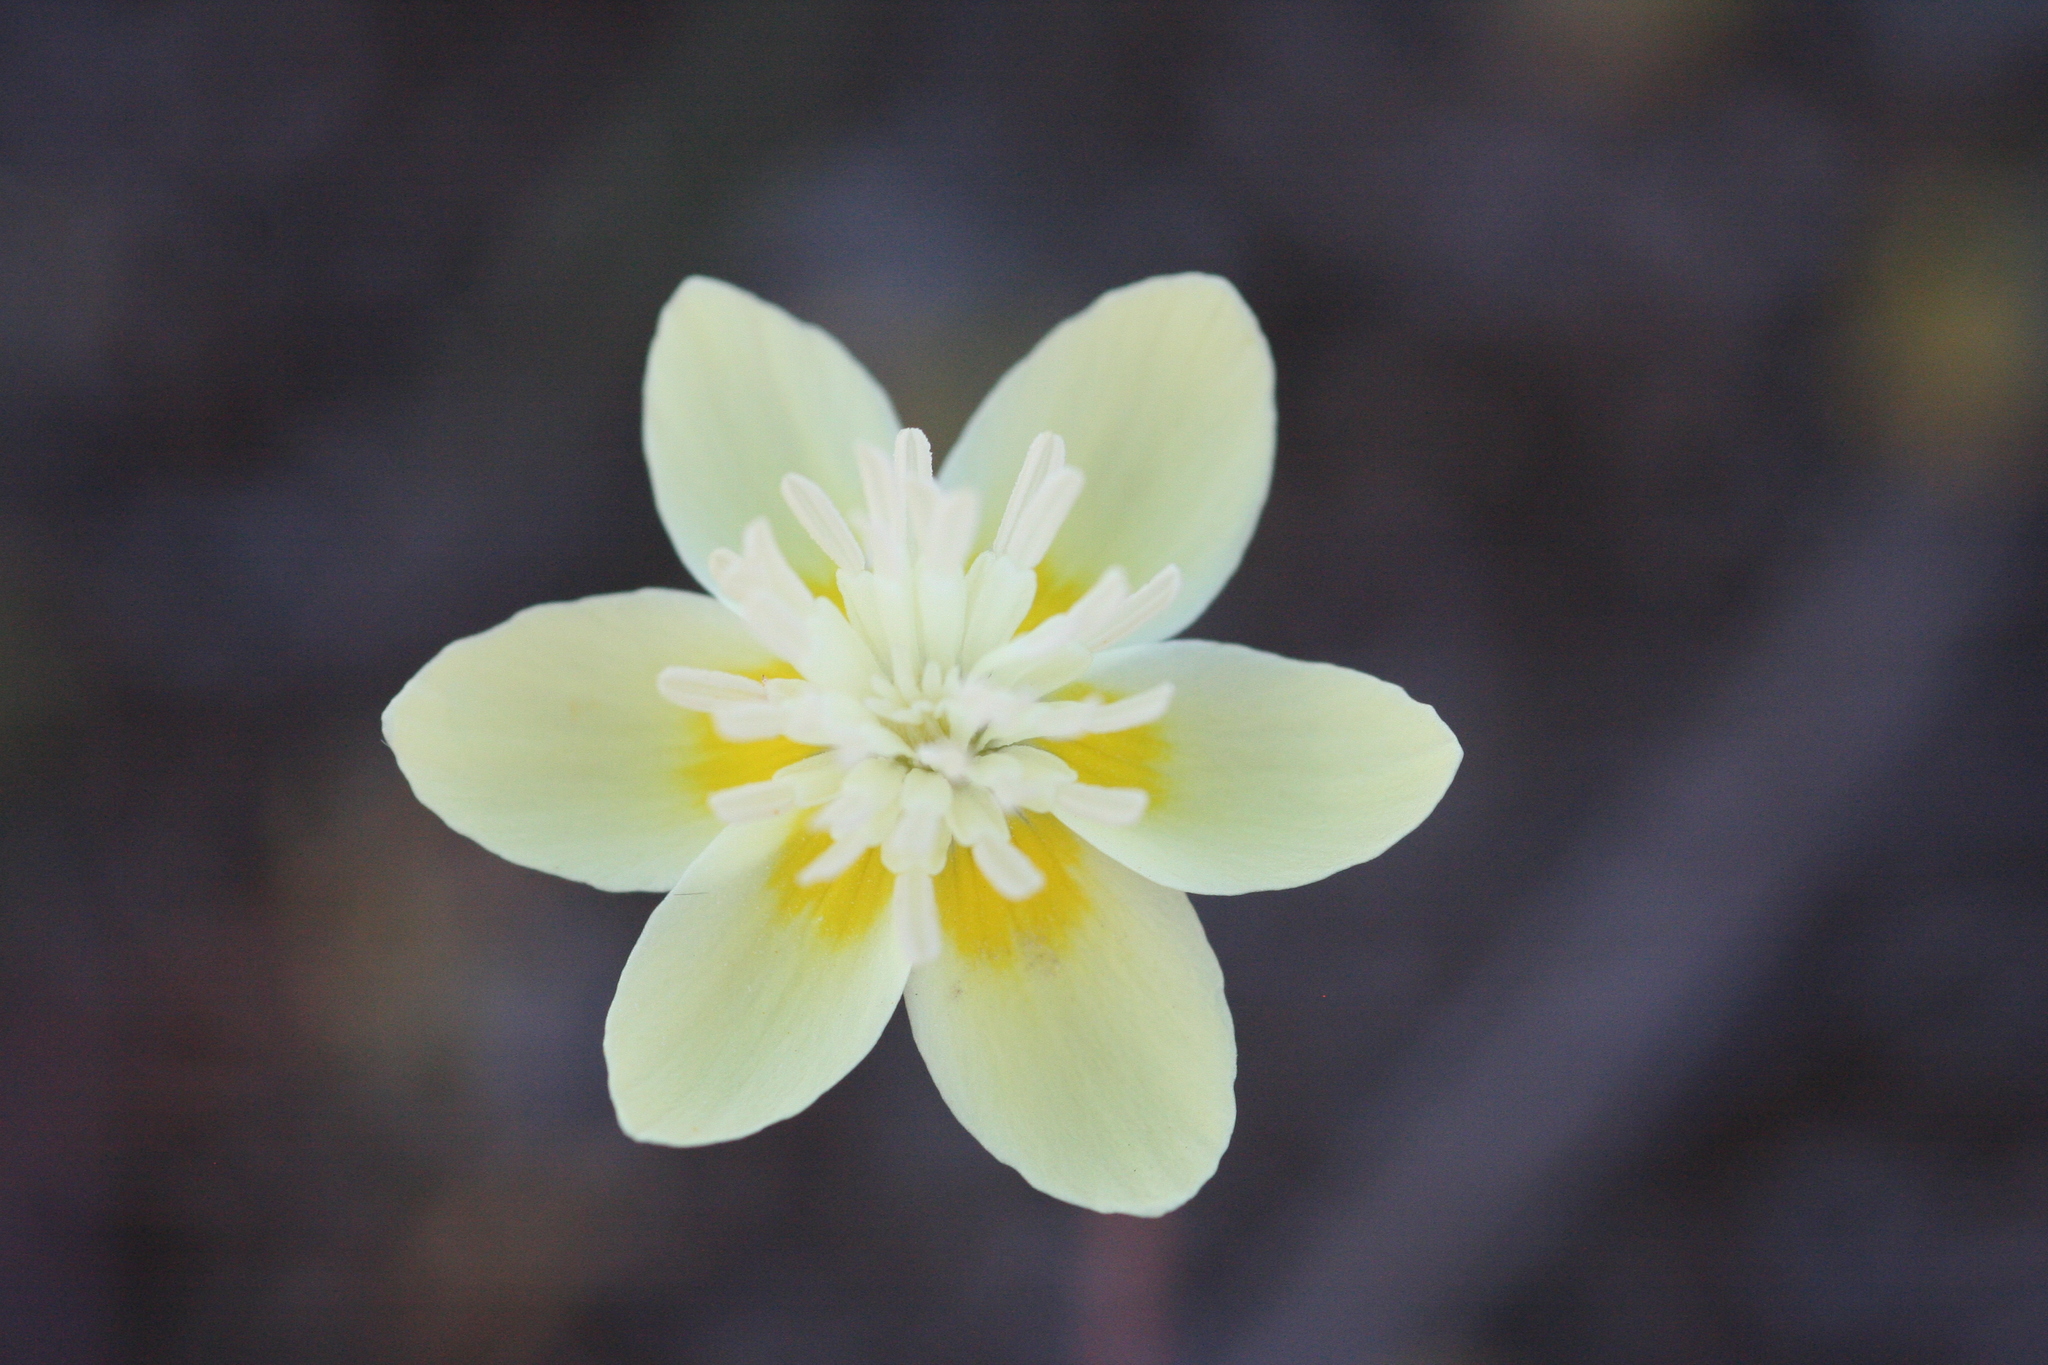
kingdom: Plantae
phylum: Tracheophyta
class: Magnoliopsida
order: Ranunculales
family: Papaveraceae
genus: Platystemon
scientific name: Platystemon californicus
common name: Cream-cups
